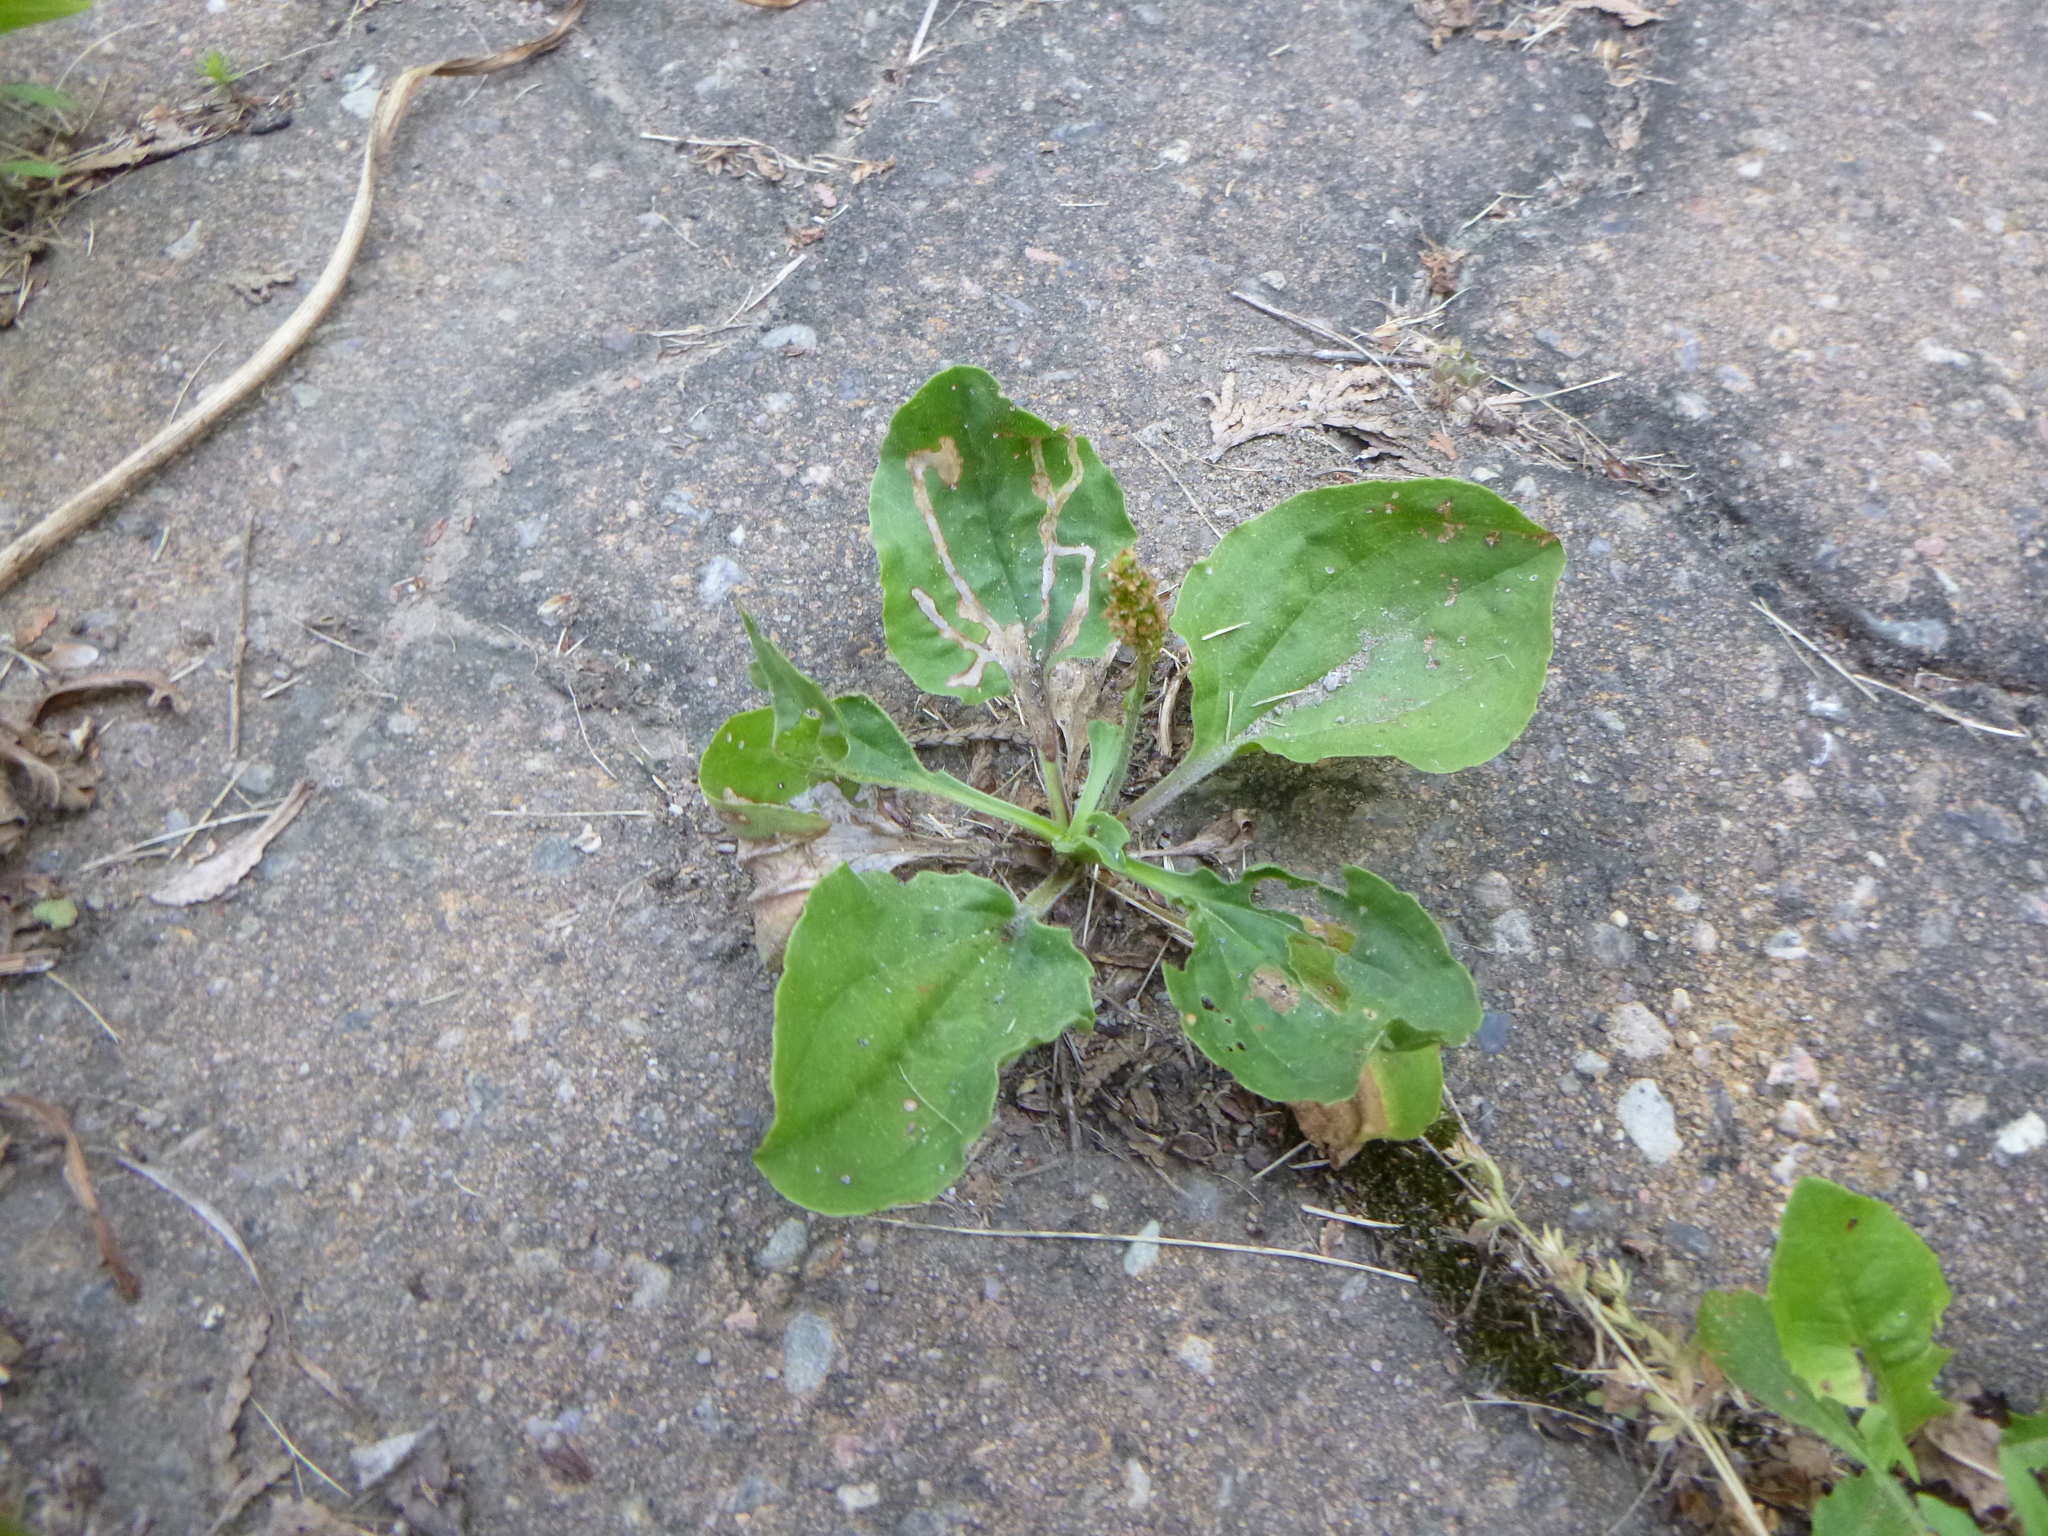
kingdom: Plantae
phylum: Tracheophyta
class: Magnoliopsida
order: Lamiales
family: Plantaginaceae
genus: Plantago
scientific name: Plantago major
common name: Common plantain
